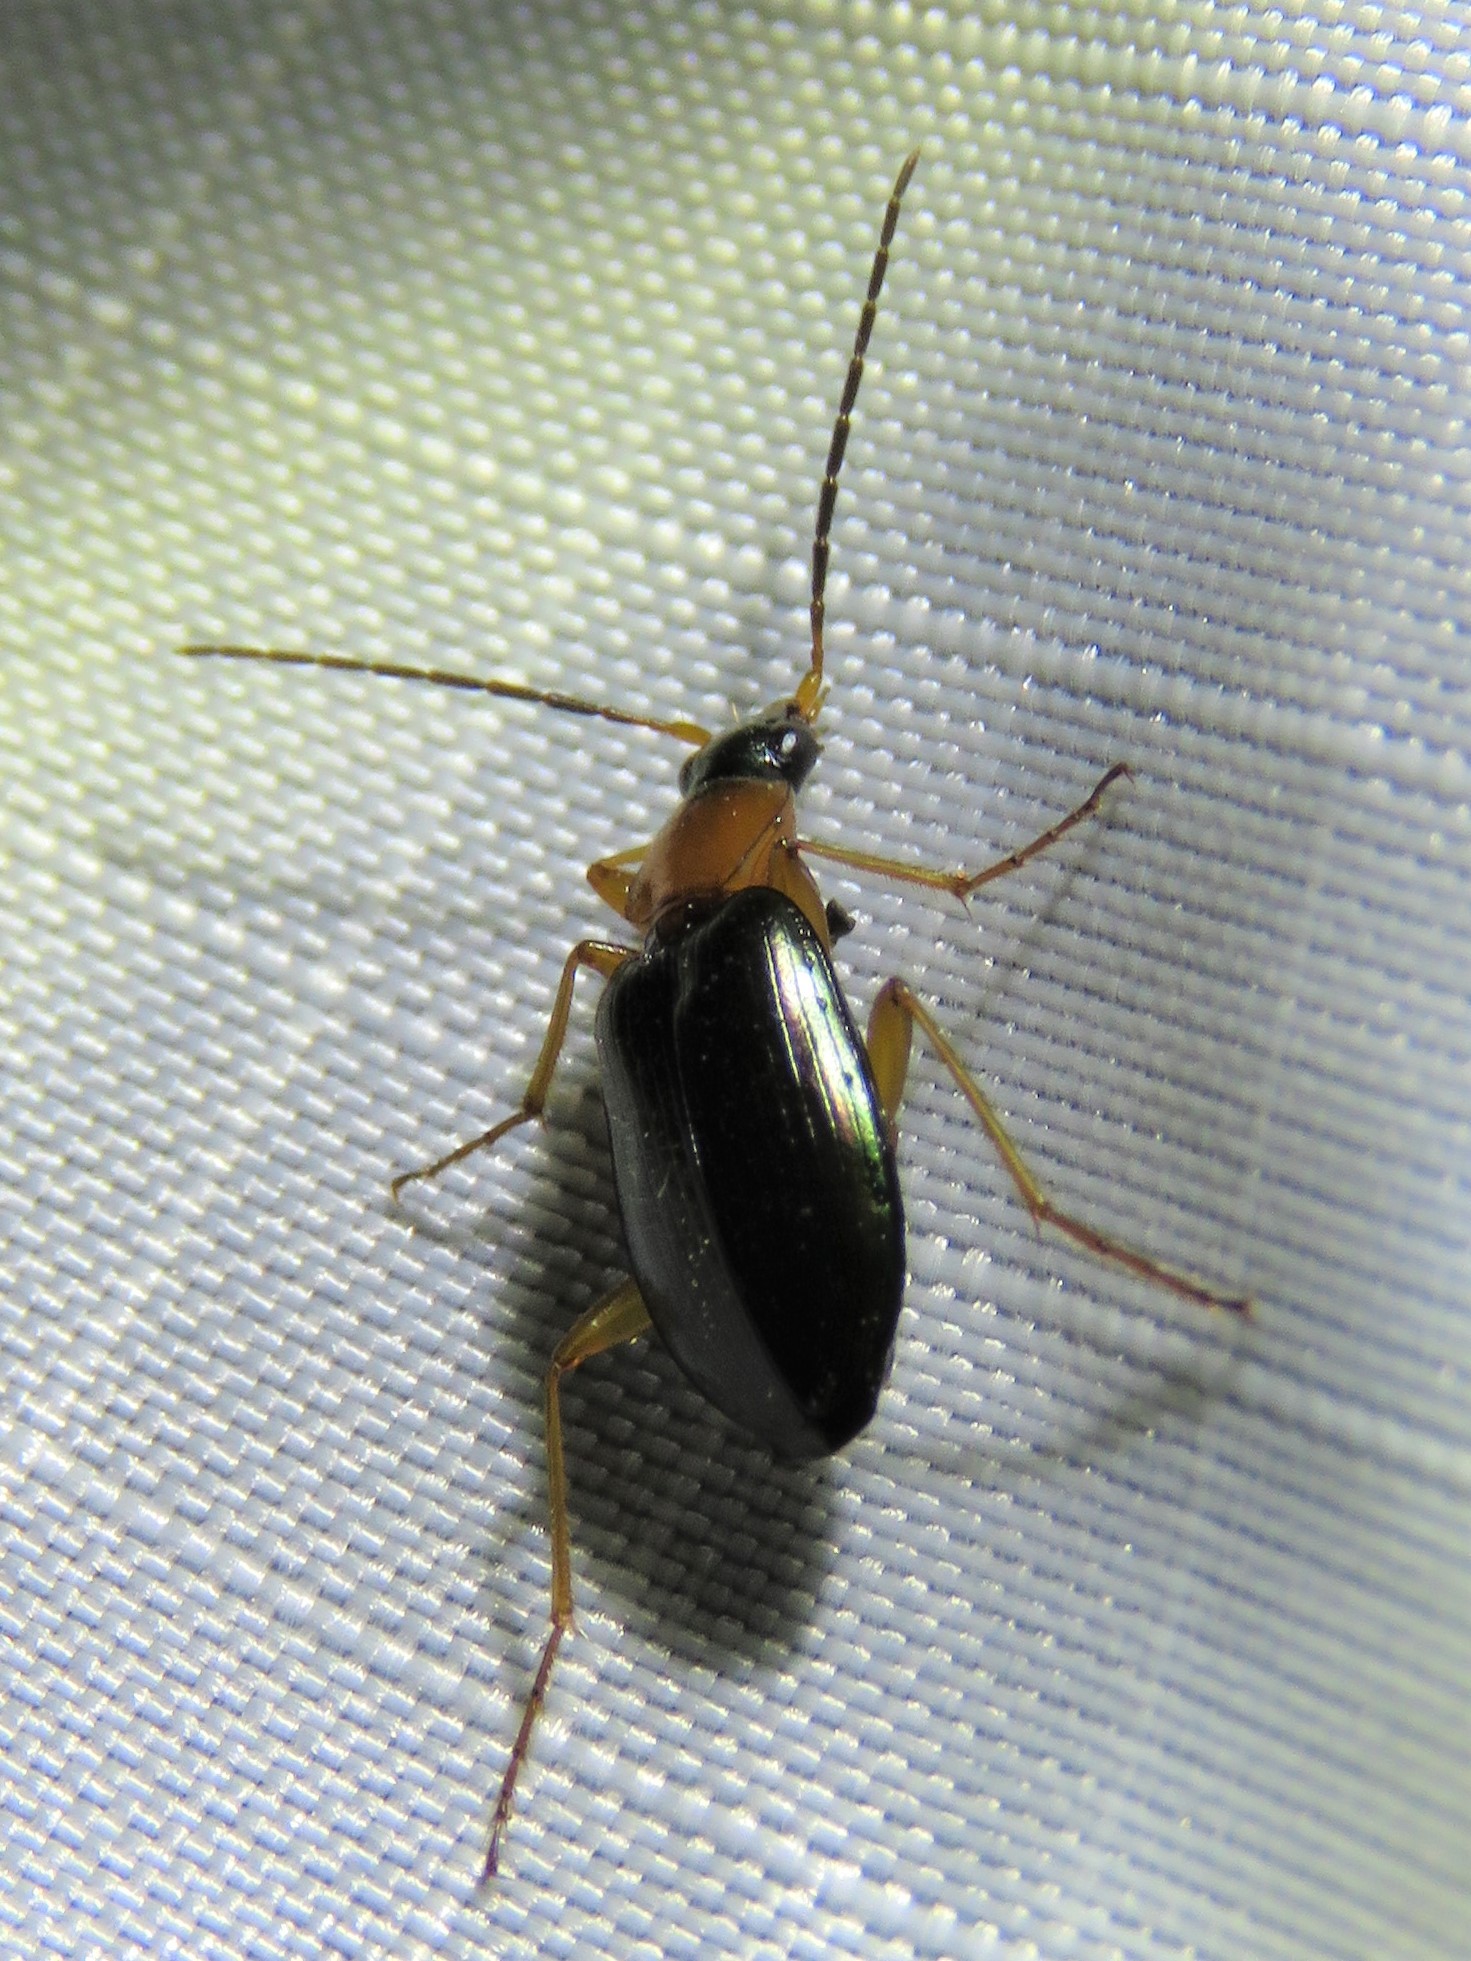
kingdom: Animalia
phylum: Arthropoda
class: Insecta
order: Coleoptera
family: Carabidae
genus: Agonum
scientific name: Agonum decorum
